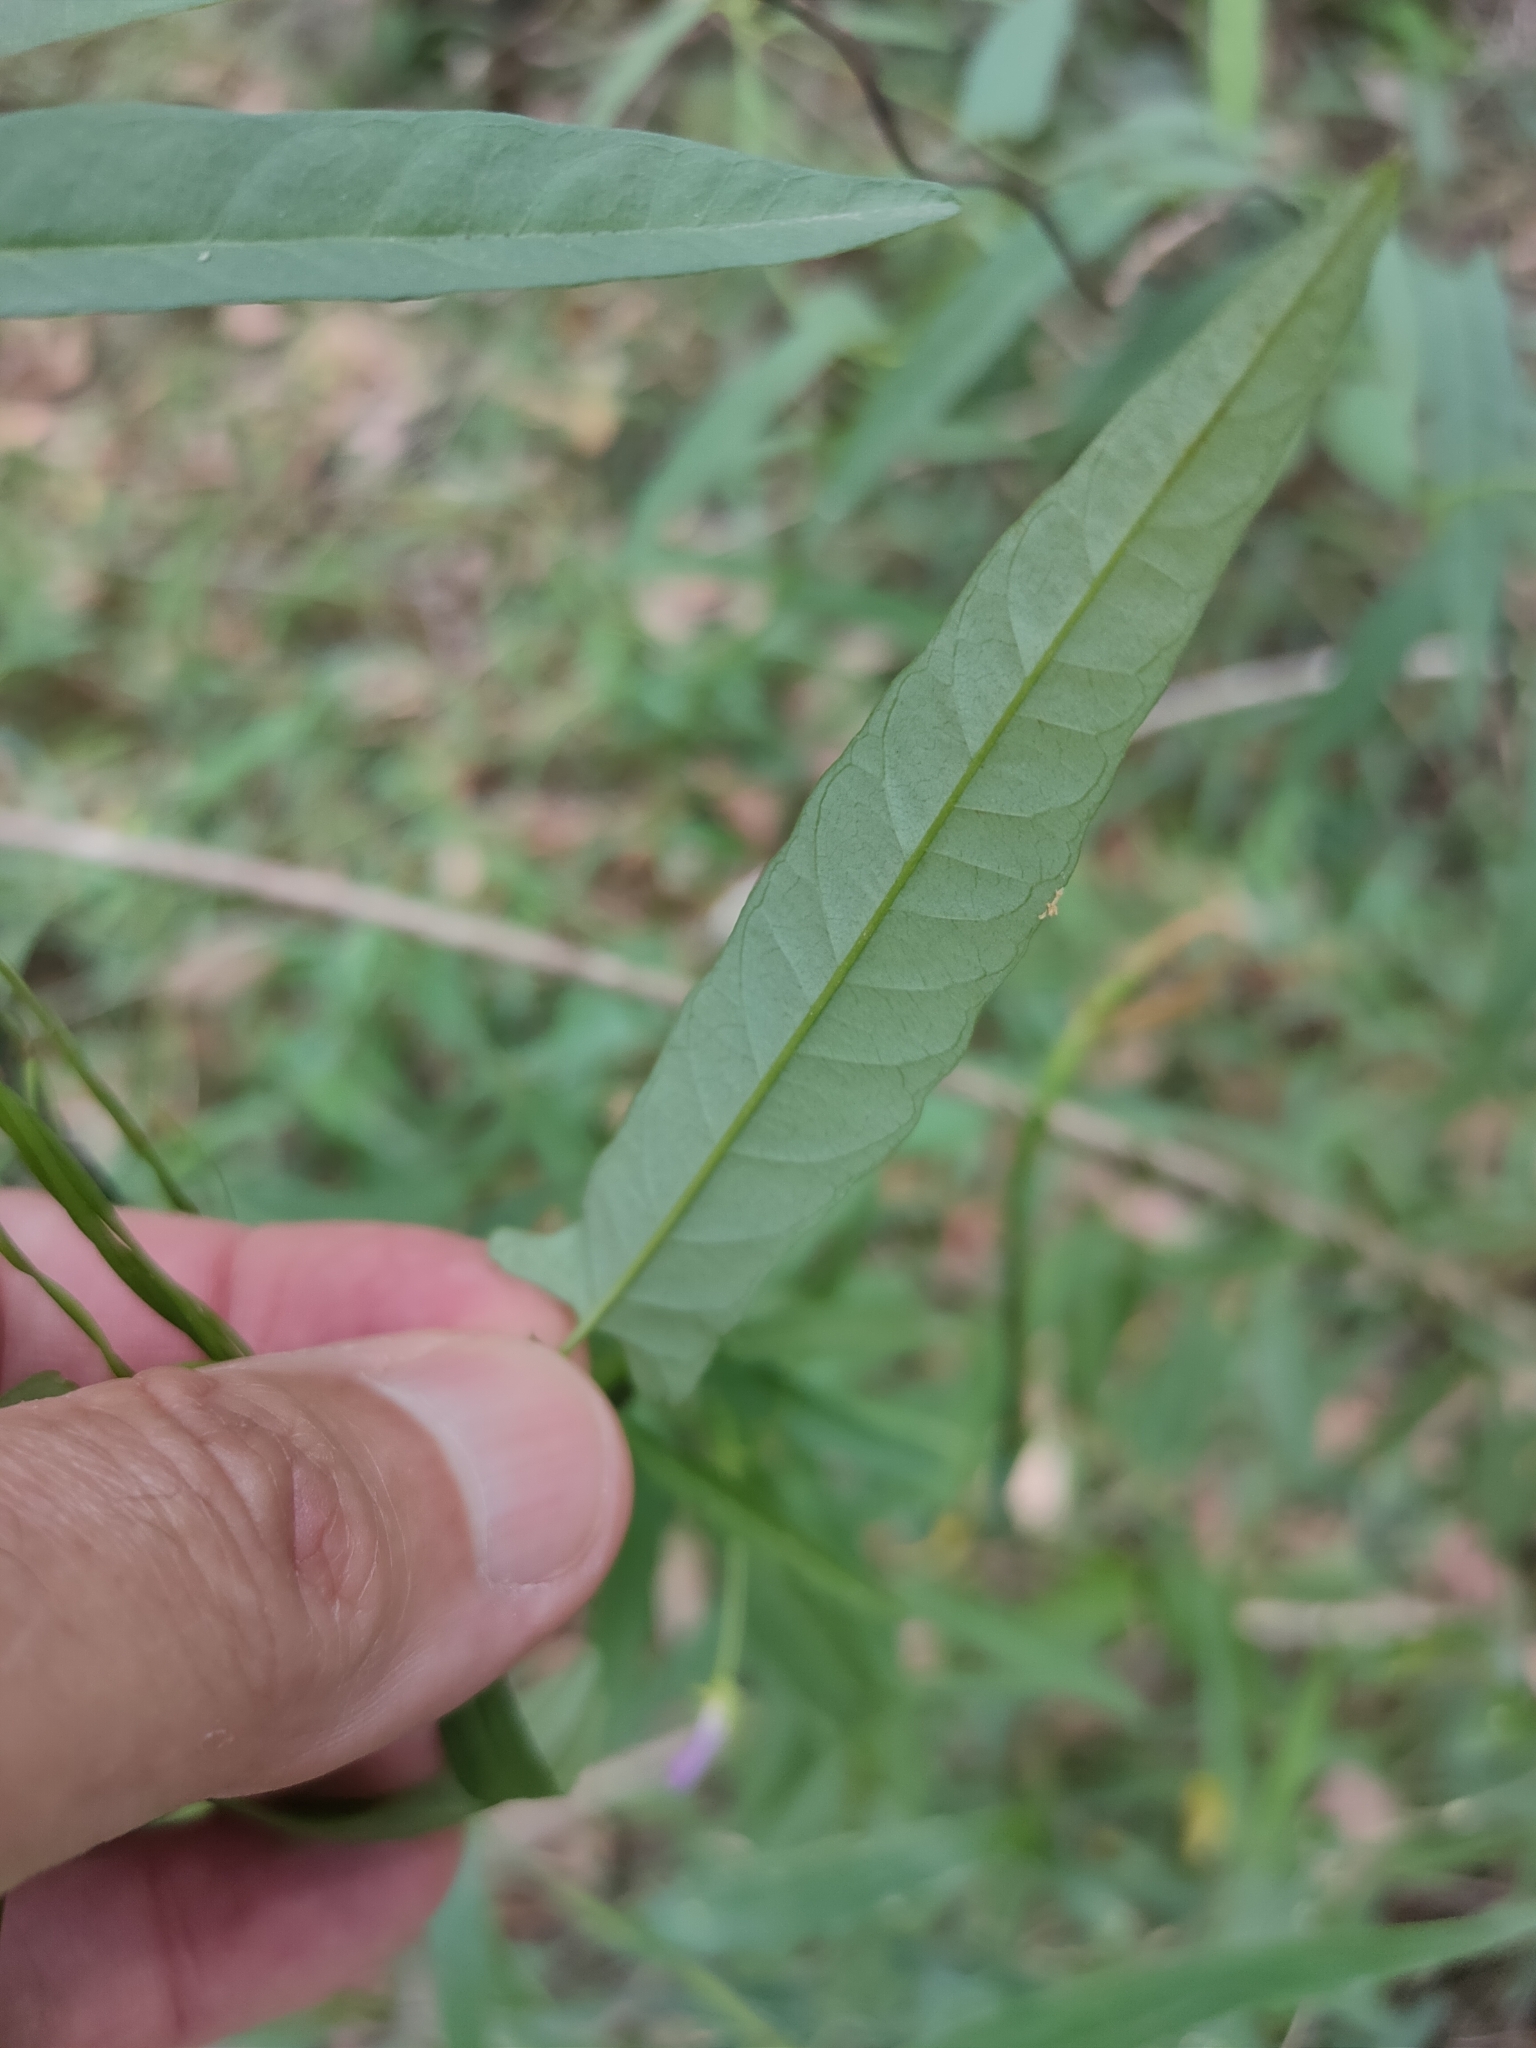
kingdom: Plantae
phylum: Tracheophyta
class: Magnoliopsida
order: Solanales
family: Convolvulaceae
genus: Polymeria
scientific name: Polymeria calycina
